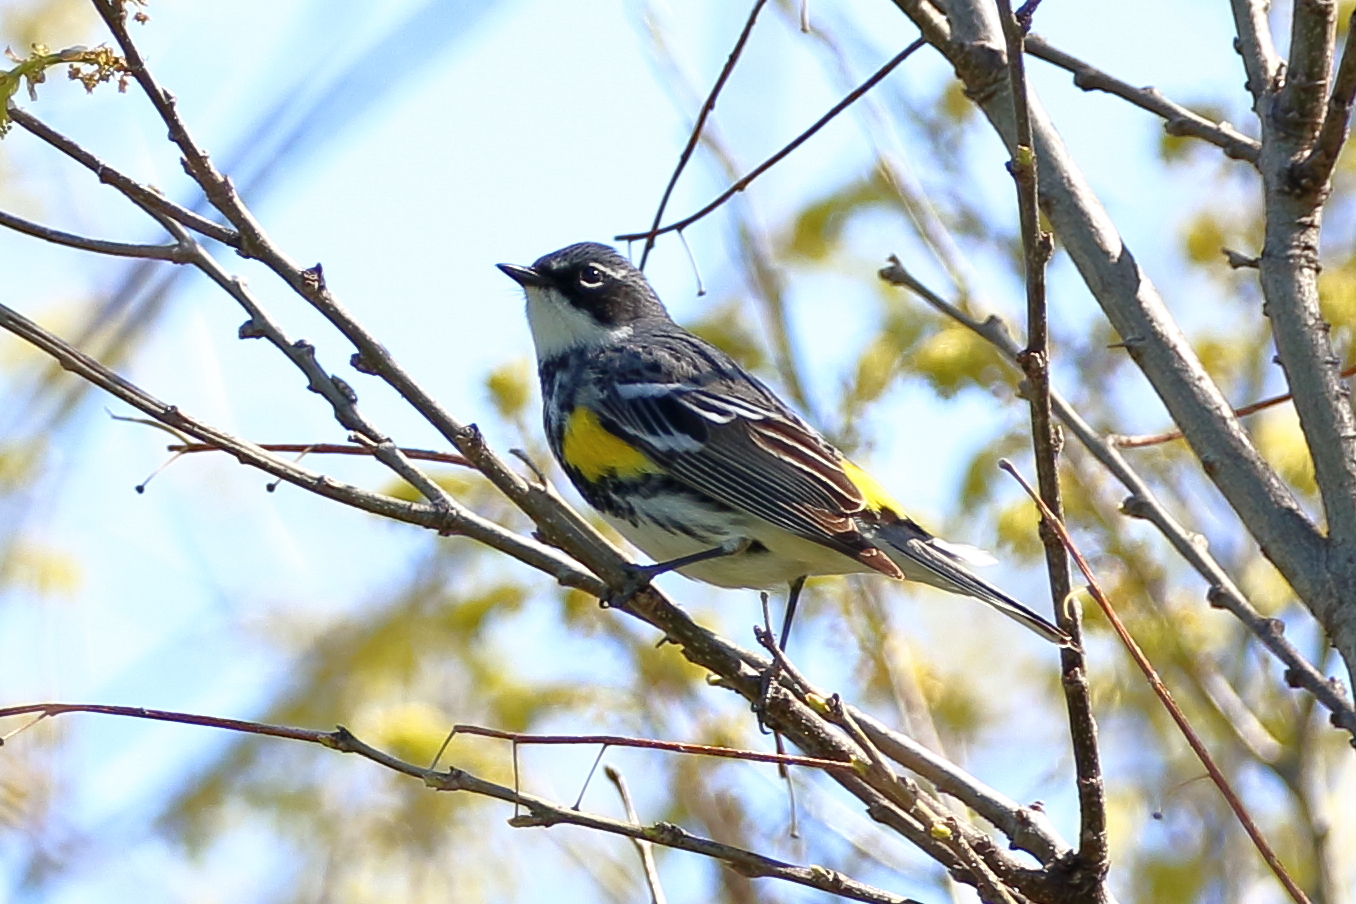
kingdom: Animalia
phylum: Chordata
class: Aves
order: Passeriformes
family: Parulidae
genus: Setophaga
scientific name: Setophaga coronata
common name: Myrtle warbler
